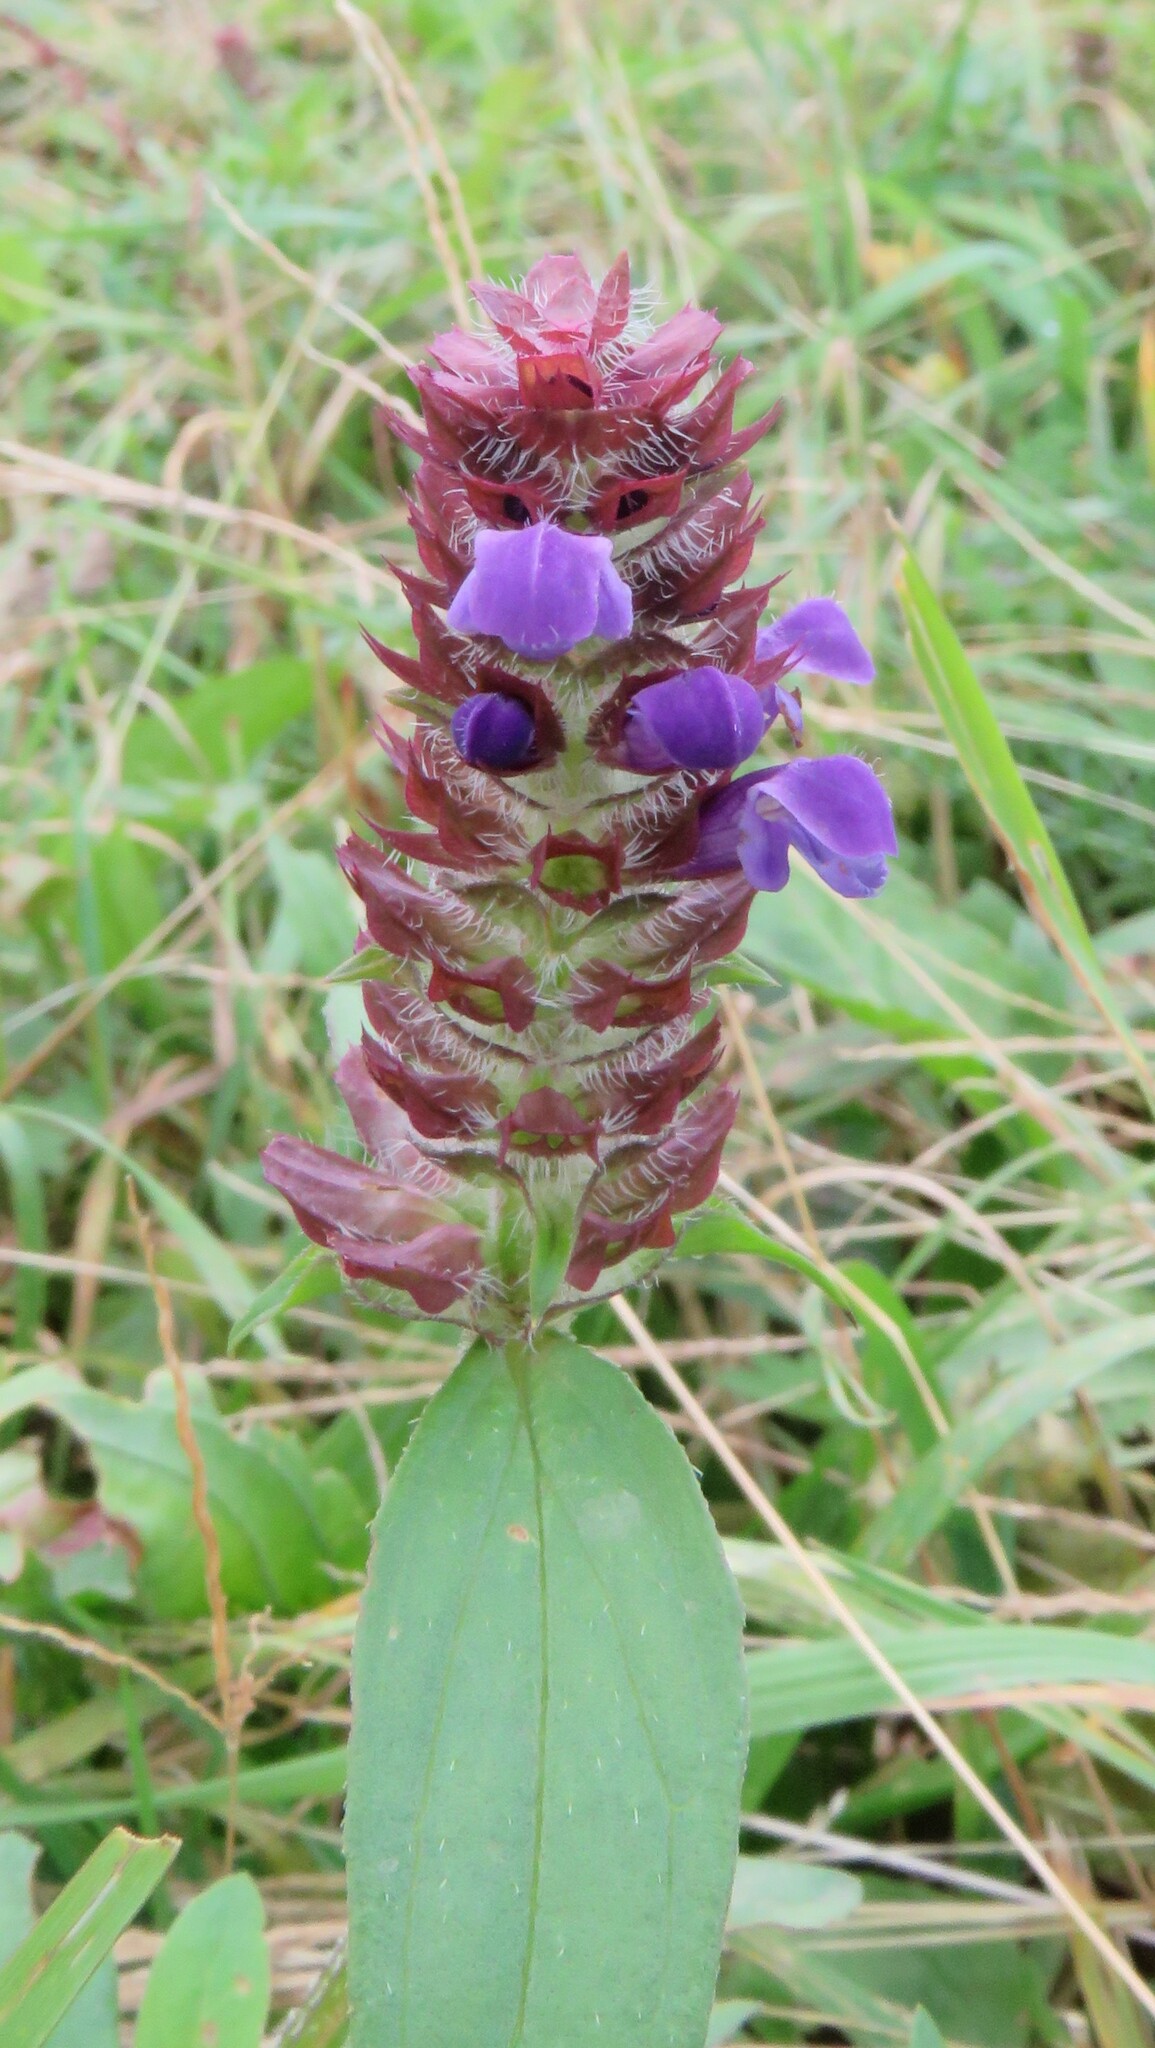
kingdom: Plantae
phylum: Tracheophyta
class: Magnoliopsida
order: Lamiales
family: Lamiaceae
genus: Prunella
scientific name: Prunella vulgaris
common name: Heal-all
